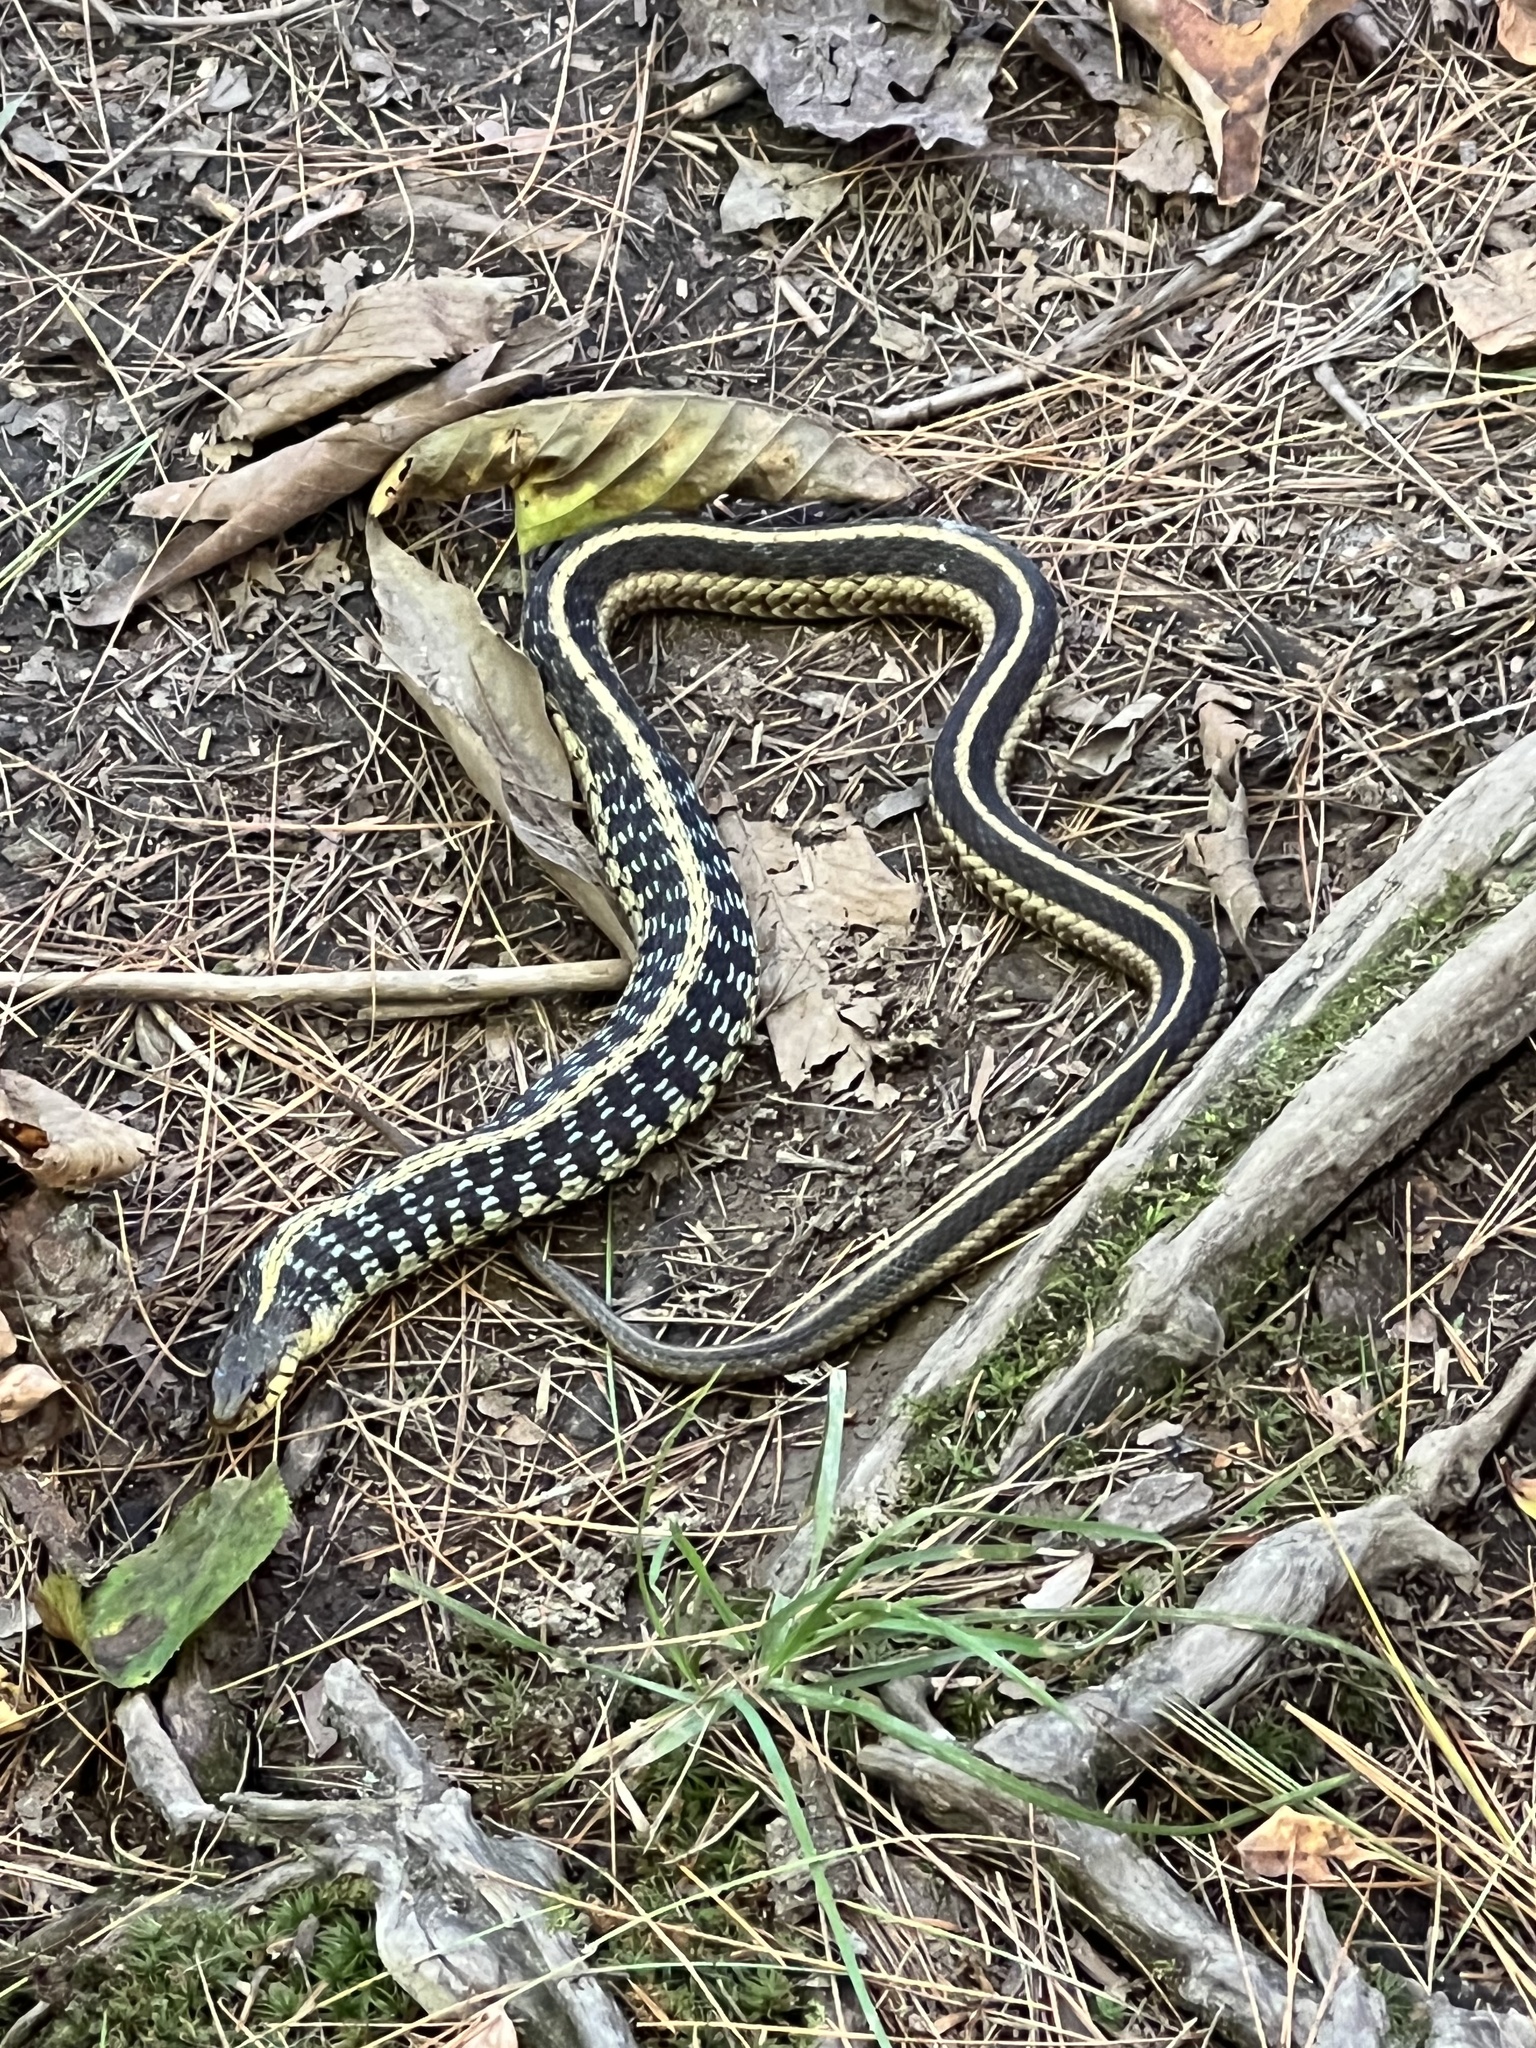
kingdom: Animalia
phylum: Chordata
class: Squamata
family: Colubridae
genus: Thamnophis
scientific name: Thamnophis sirtalis
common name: Common garter snake
